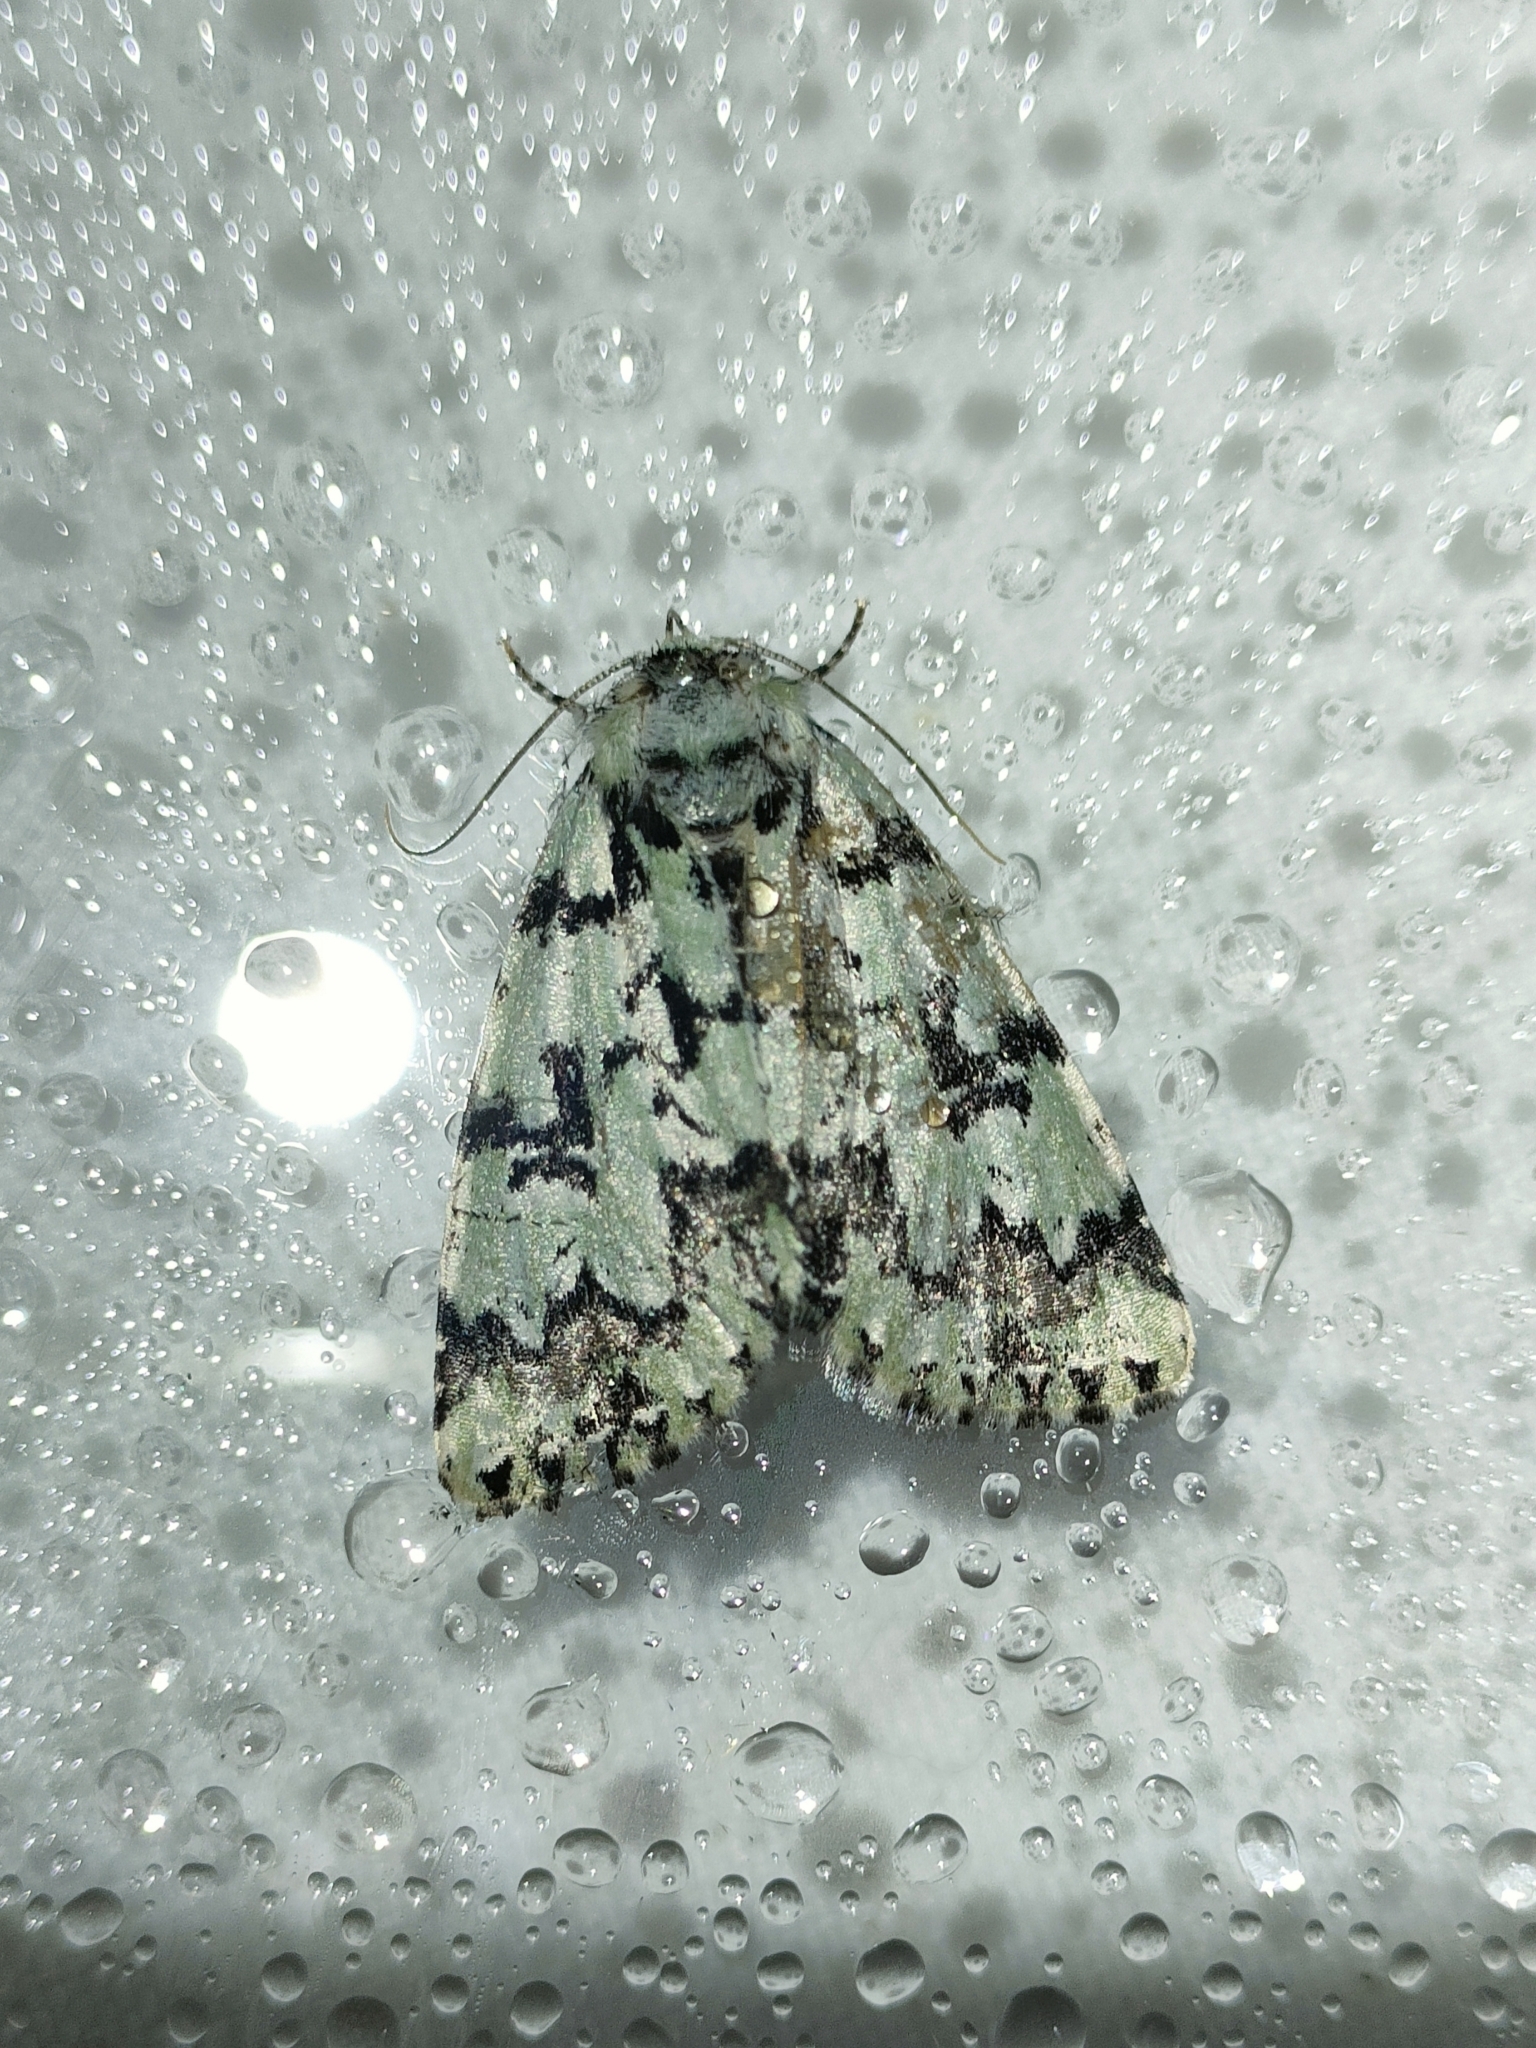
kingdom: Animalia
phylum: Arthropoda
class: Insecta
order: Lepidoptera
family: Noctuidae
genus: Moma
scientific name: Moma alpium
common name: Scarce merveille du jour
